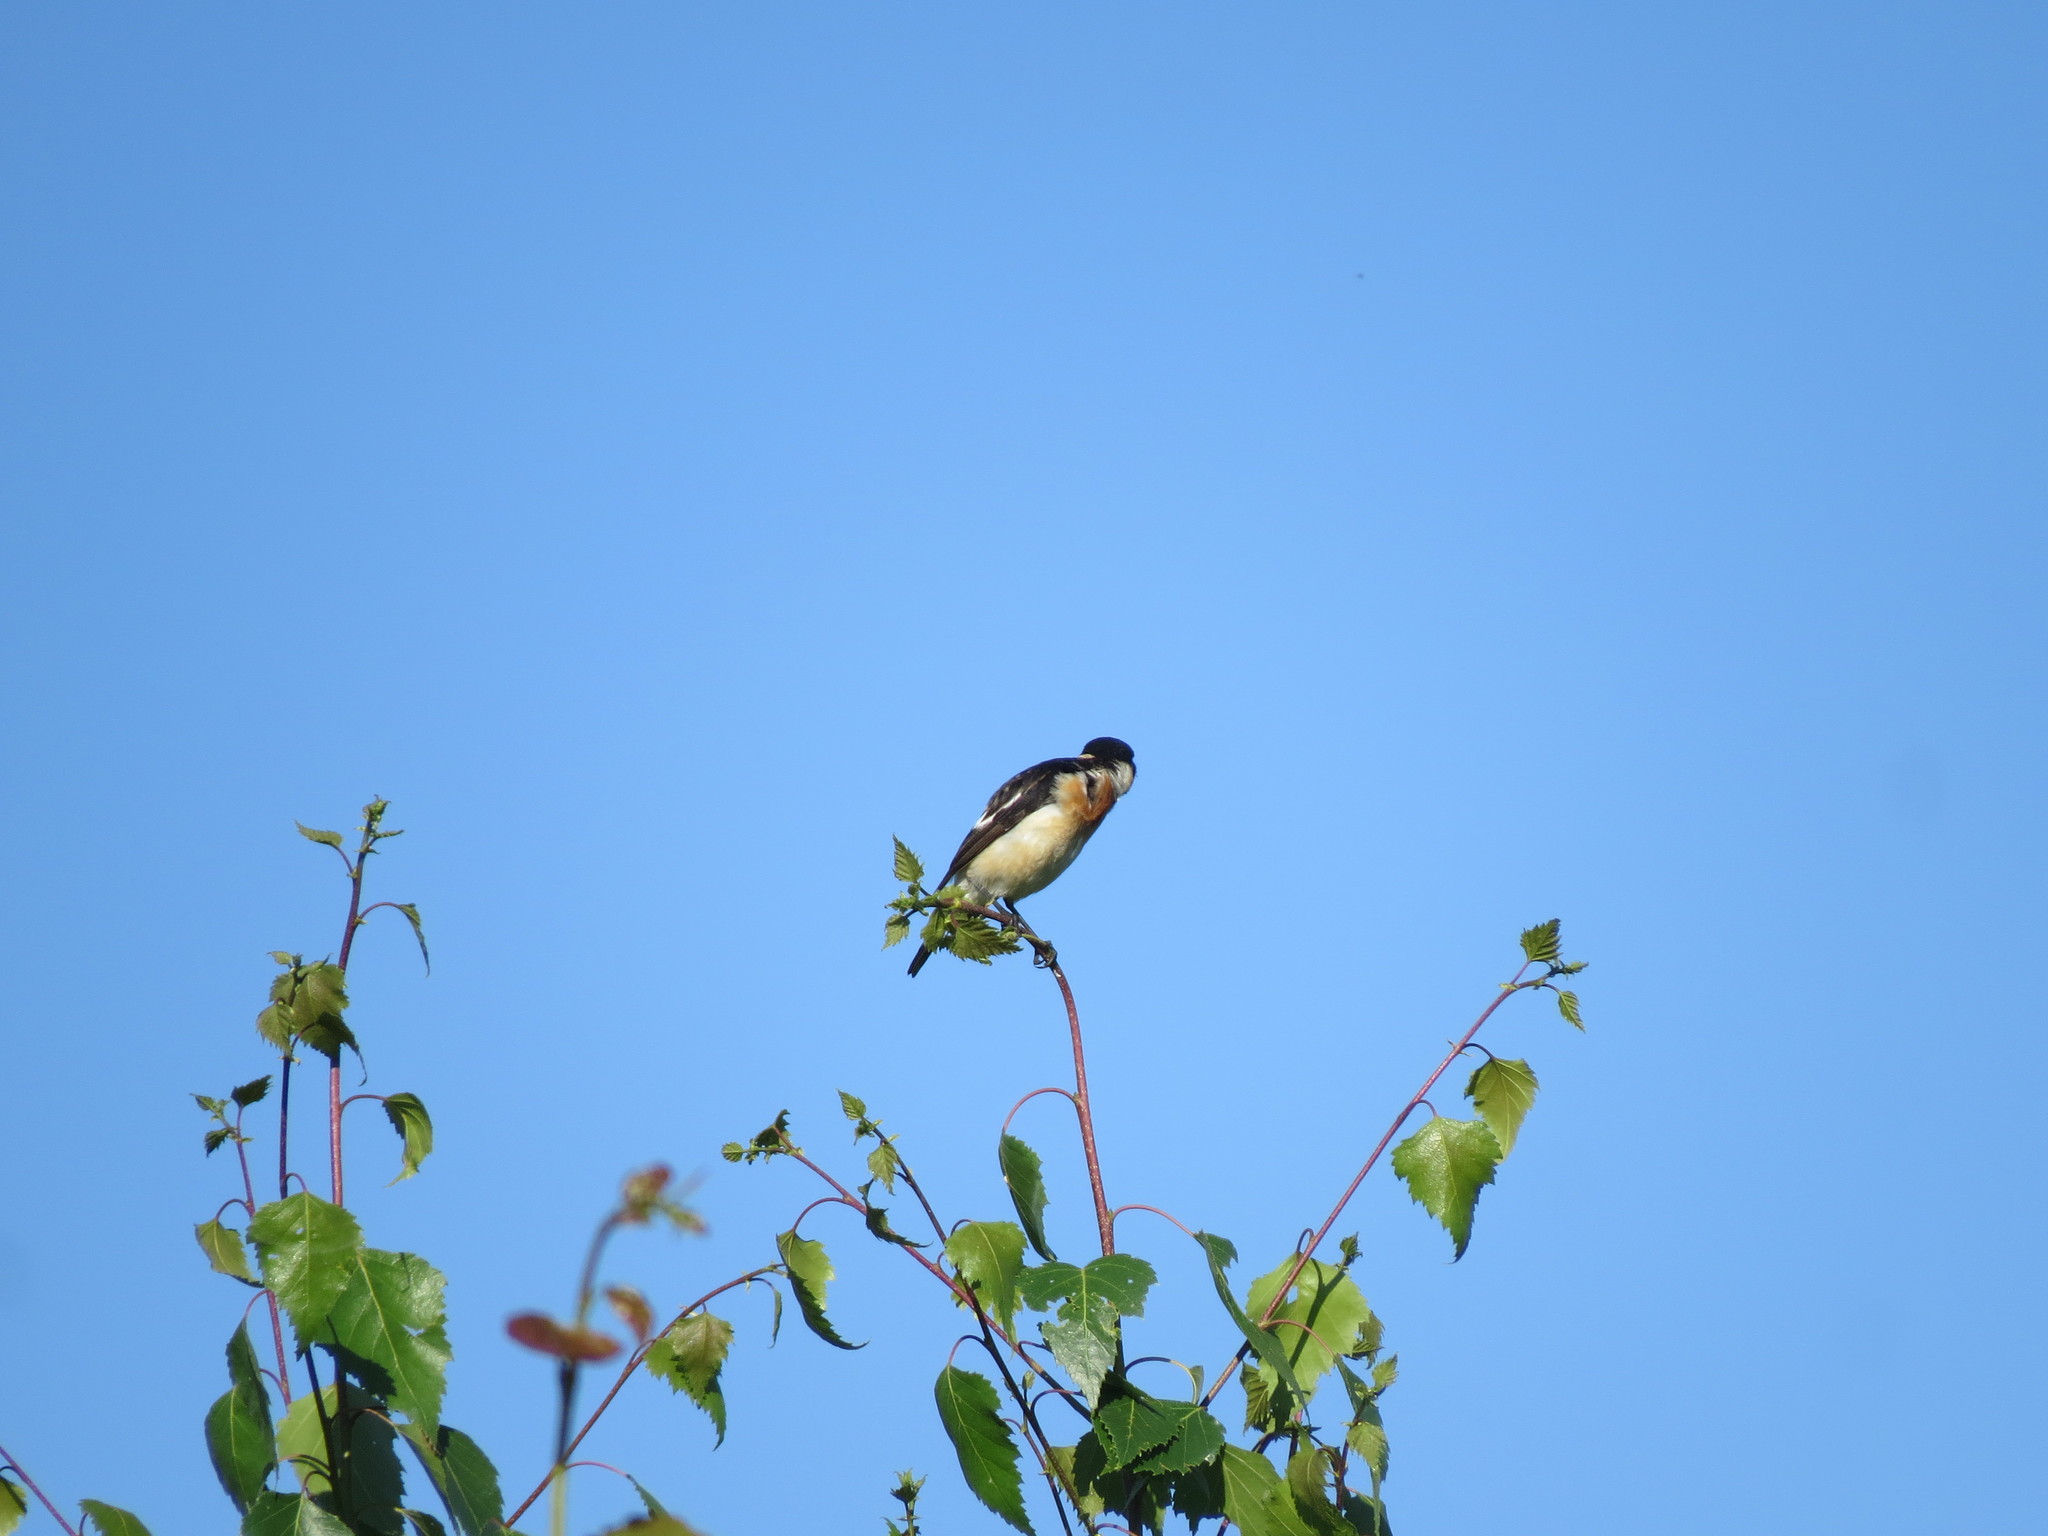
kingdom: Animalia
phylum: Chordata
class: Aves
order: Passeriformes
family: Muscicapidae
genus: Saxicola
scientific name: Saxicola maurus
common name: Siberian stonechat
